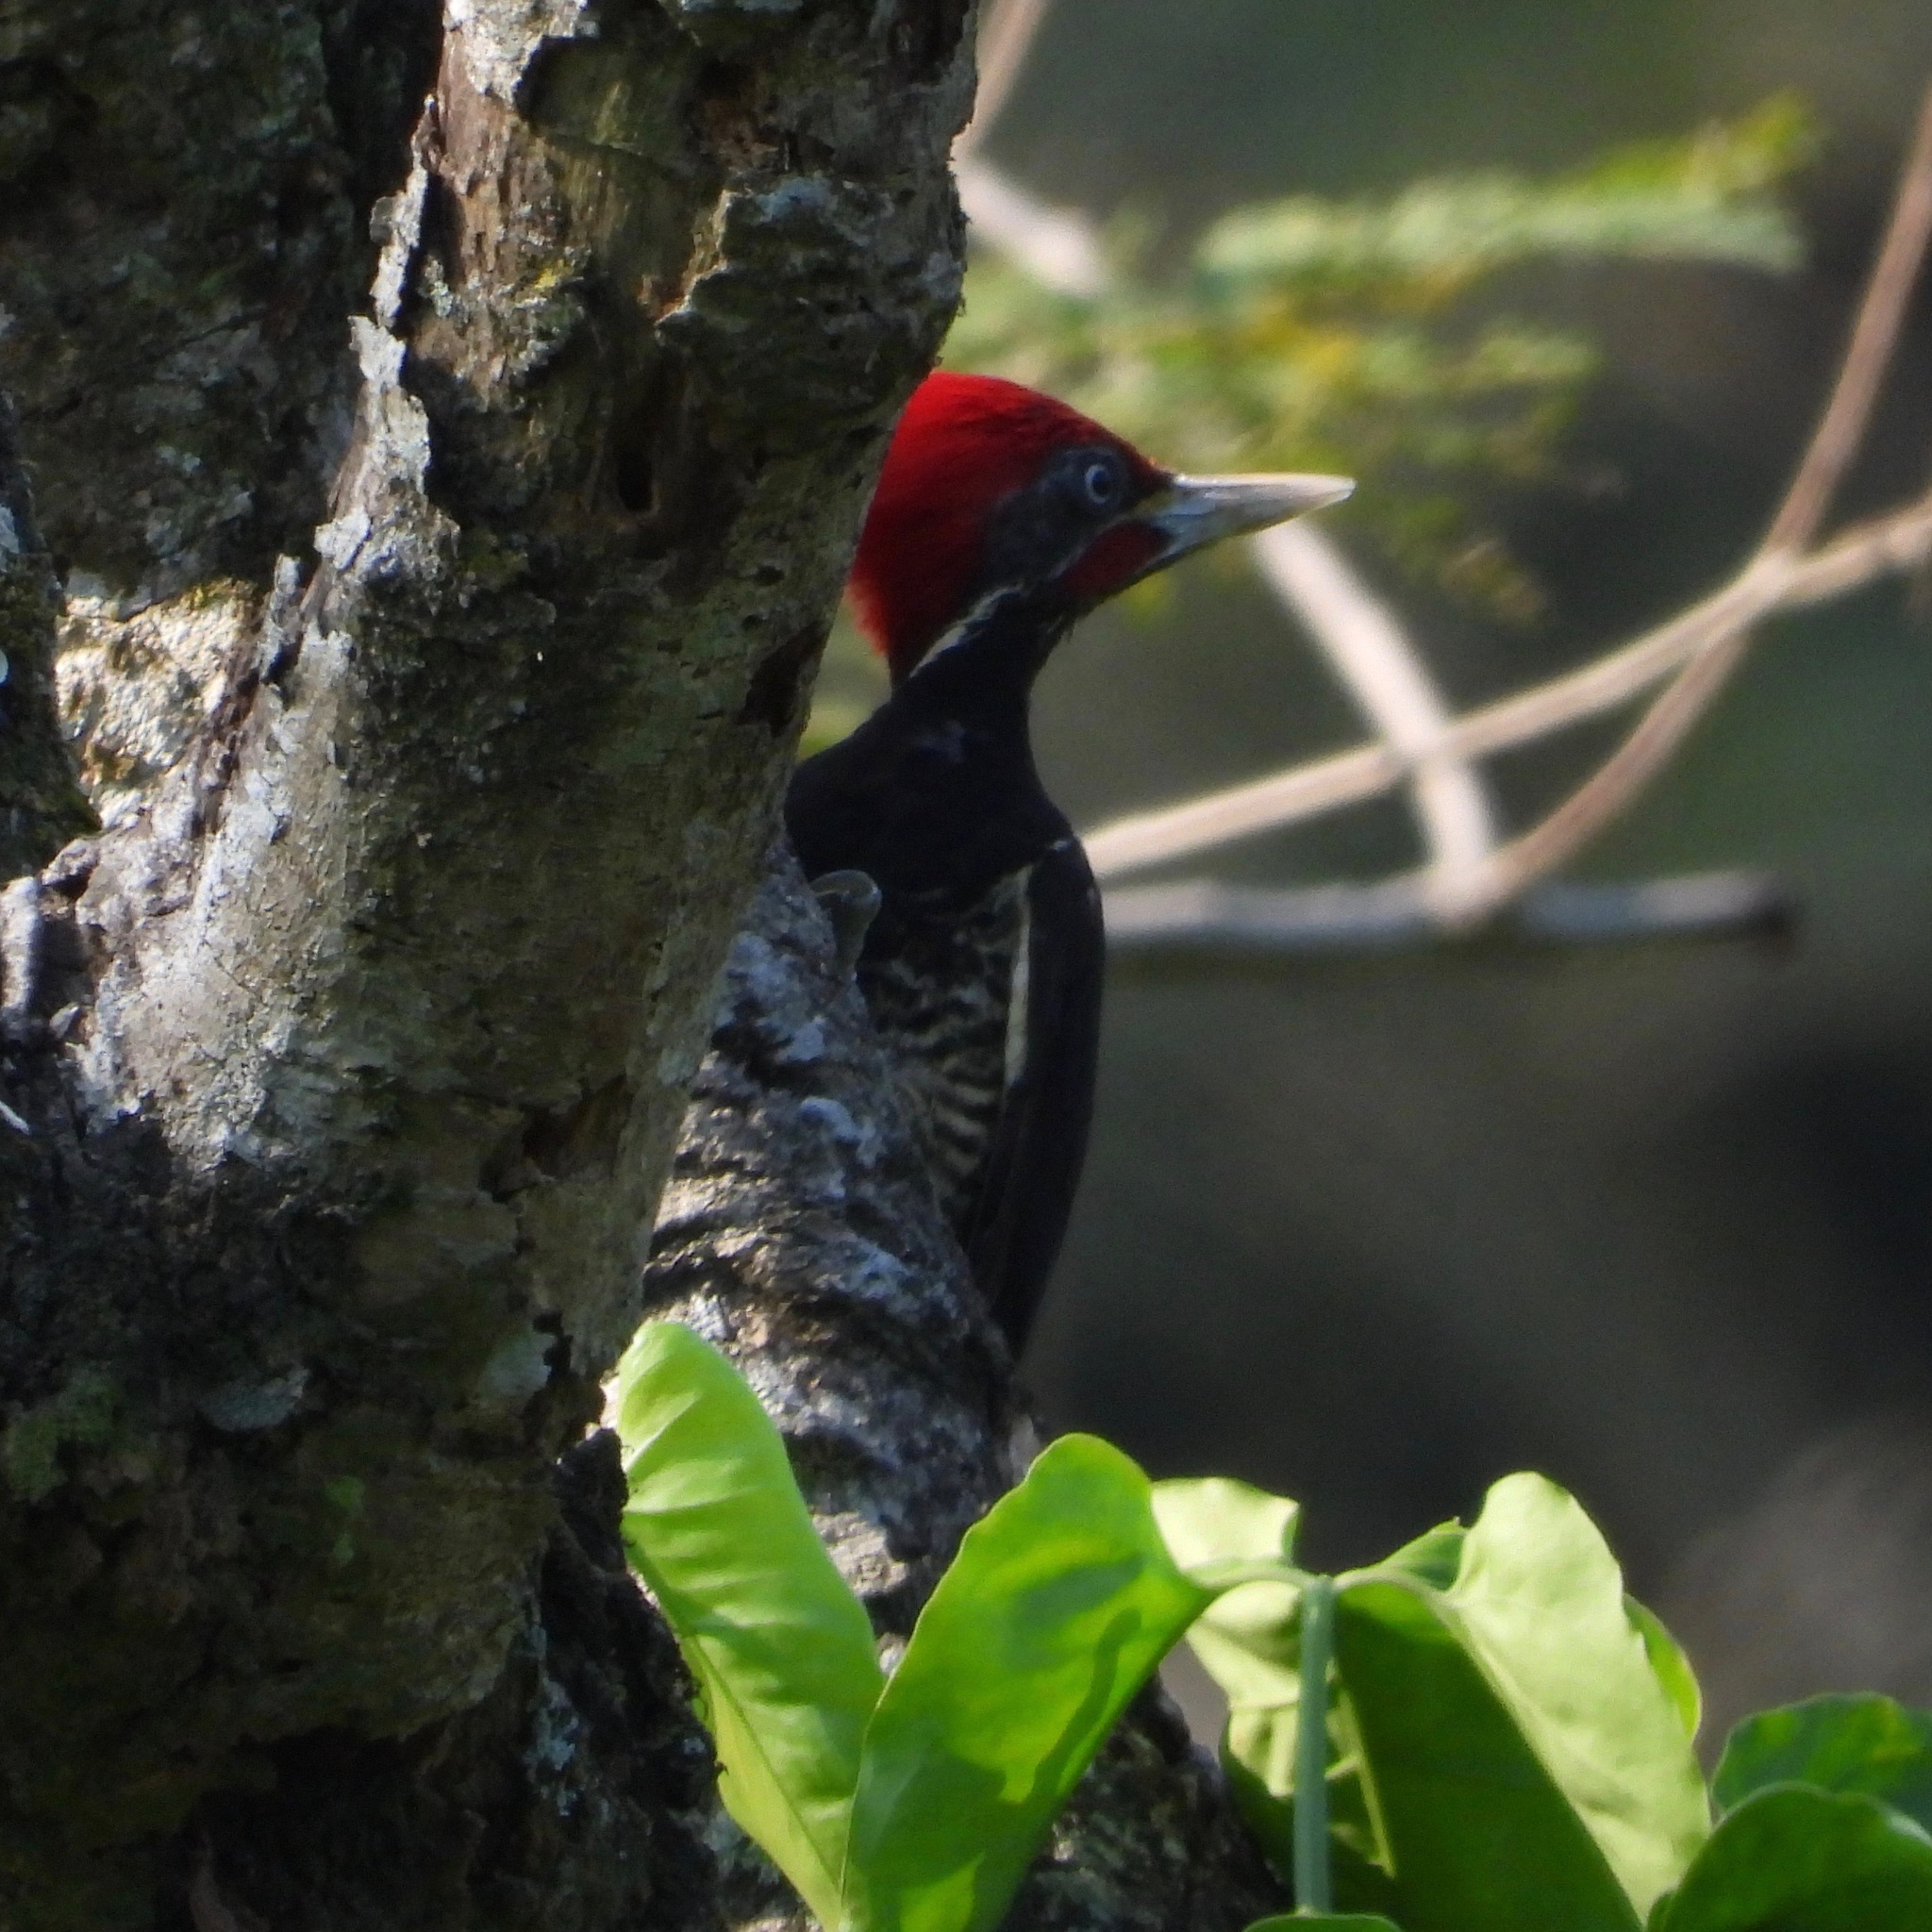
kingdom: Animalia
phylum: Chordata
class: Aves
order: Piciformes
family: Picidae
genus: Dryocopus
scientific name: Dryocopus lineatus
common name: Lineated woodpecker
